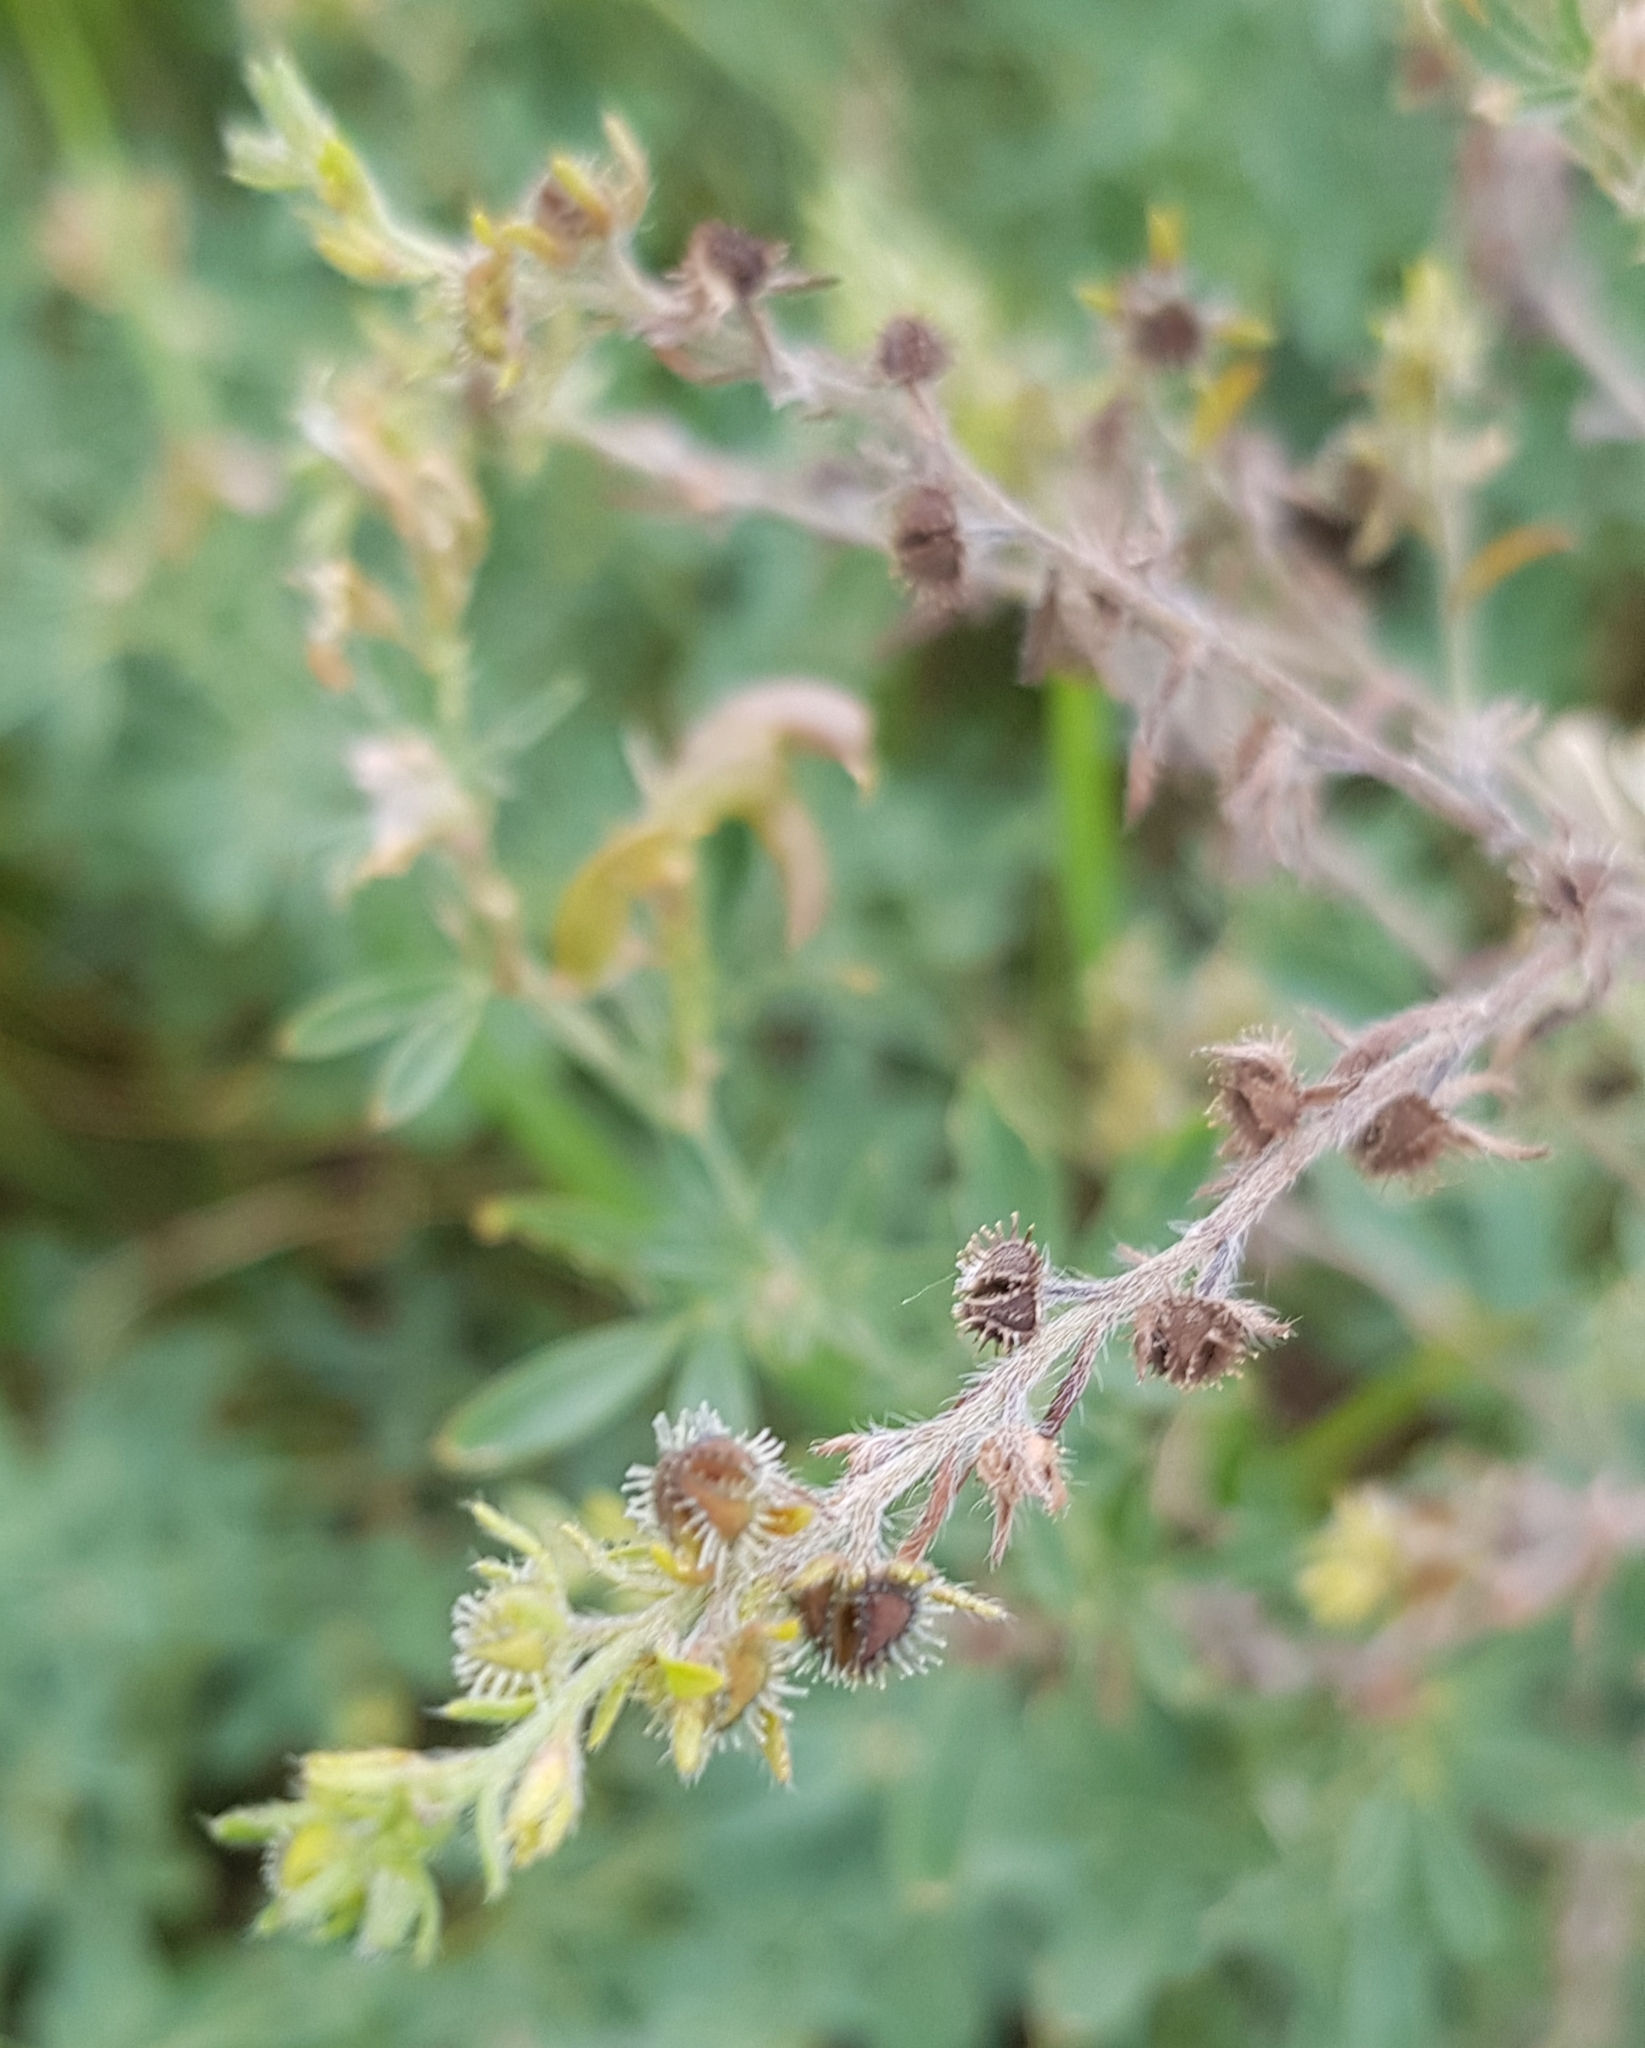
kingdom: Plantae
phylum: Tracheophyta
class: Magnoliopsida
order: Boraginales
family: Boraginaceae
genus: Lappula
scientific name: Lappula squarrosa
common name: European stickseed
